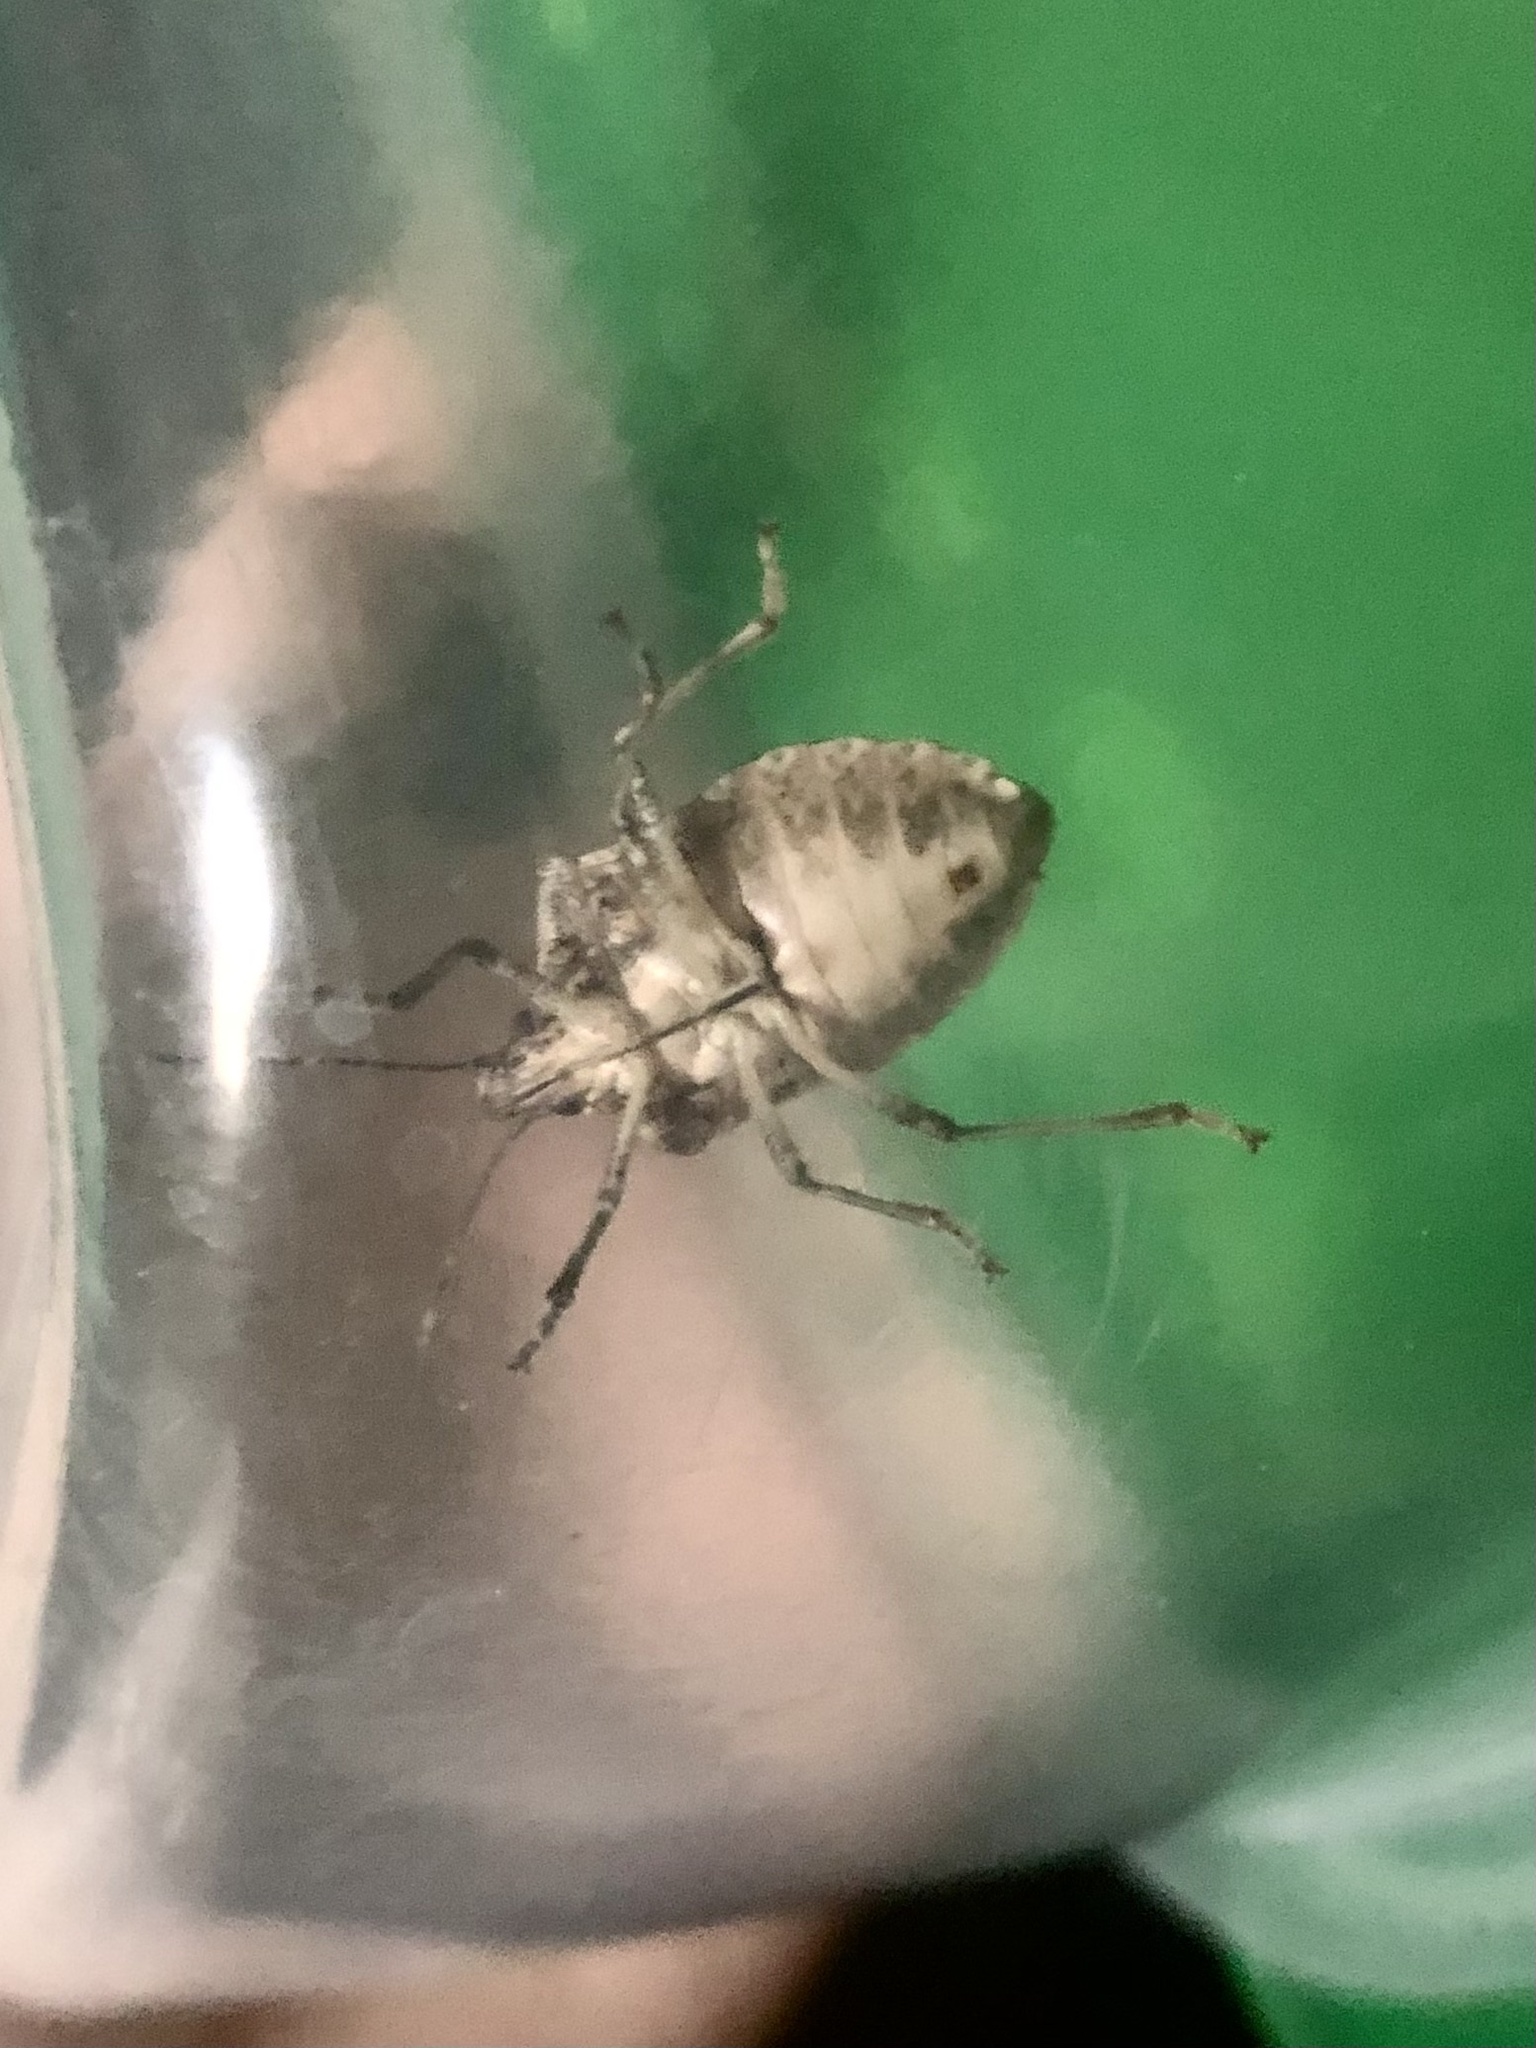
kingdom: Animalia
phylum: Arthropoda
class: Insecta
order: Hemiptera
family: Pentatomidae
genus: Halyomorpha
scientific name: Halyomorpha halys
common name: Brown marmorated stink bug
